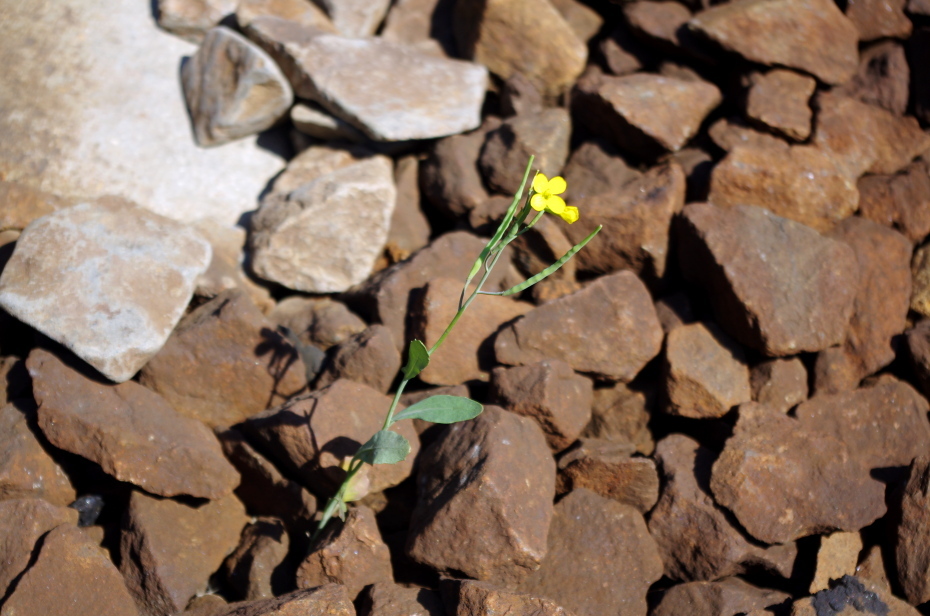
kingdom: Plantae
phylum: Tracheophyta
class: Magnoliopsida
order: Brassicales
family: Brassicaceae
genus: Brassica
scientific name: Brassica napus
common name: Rape
